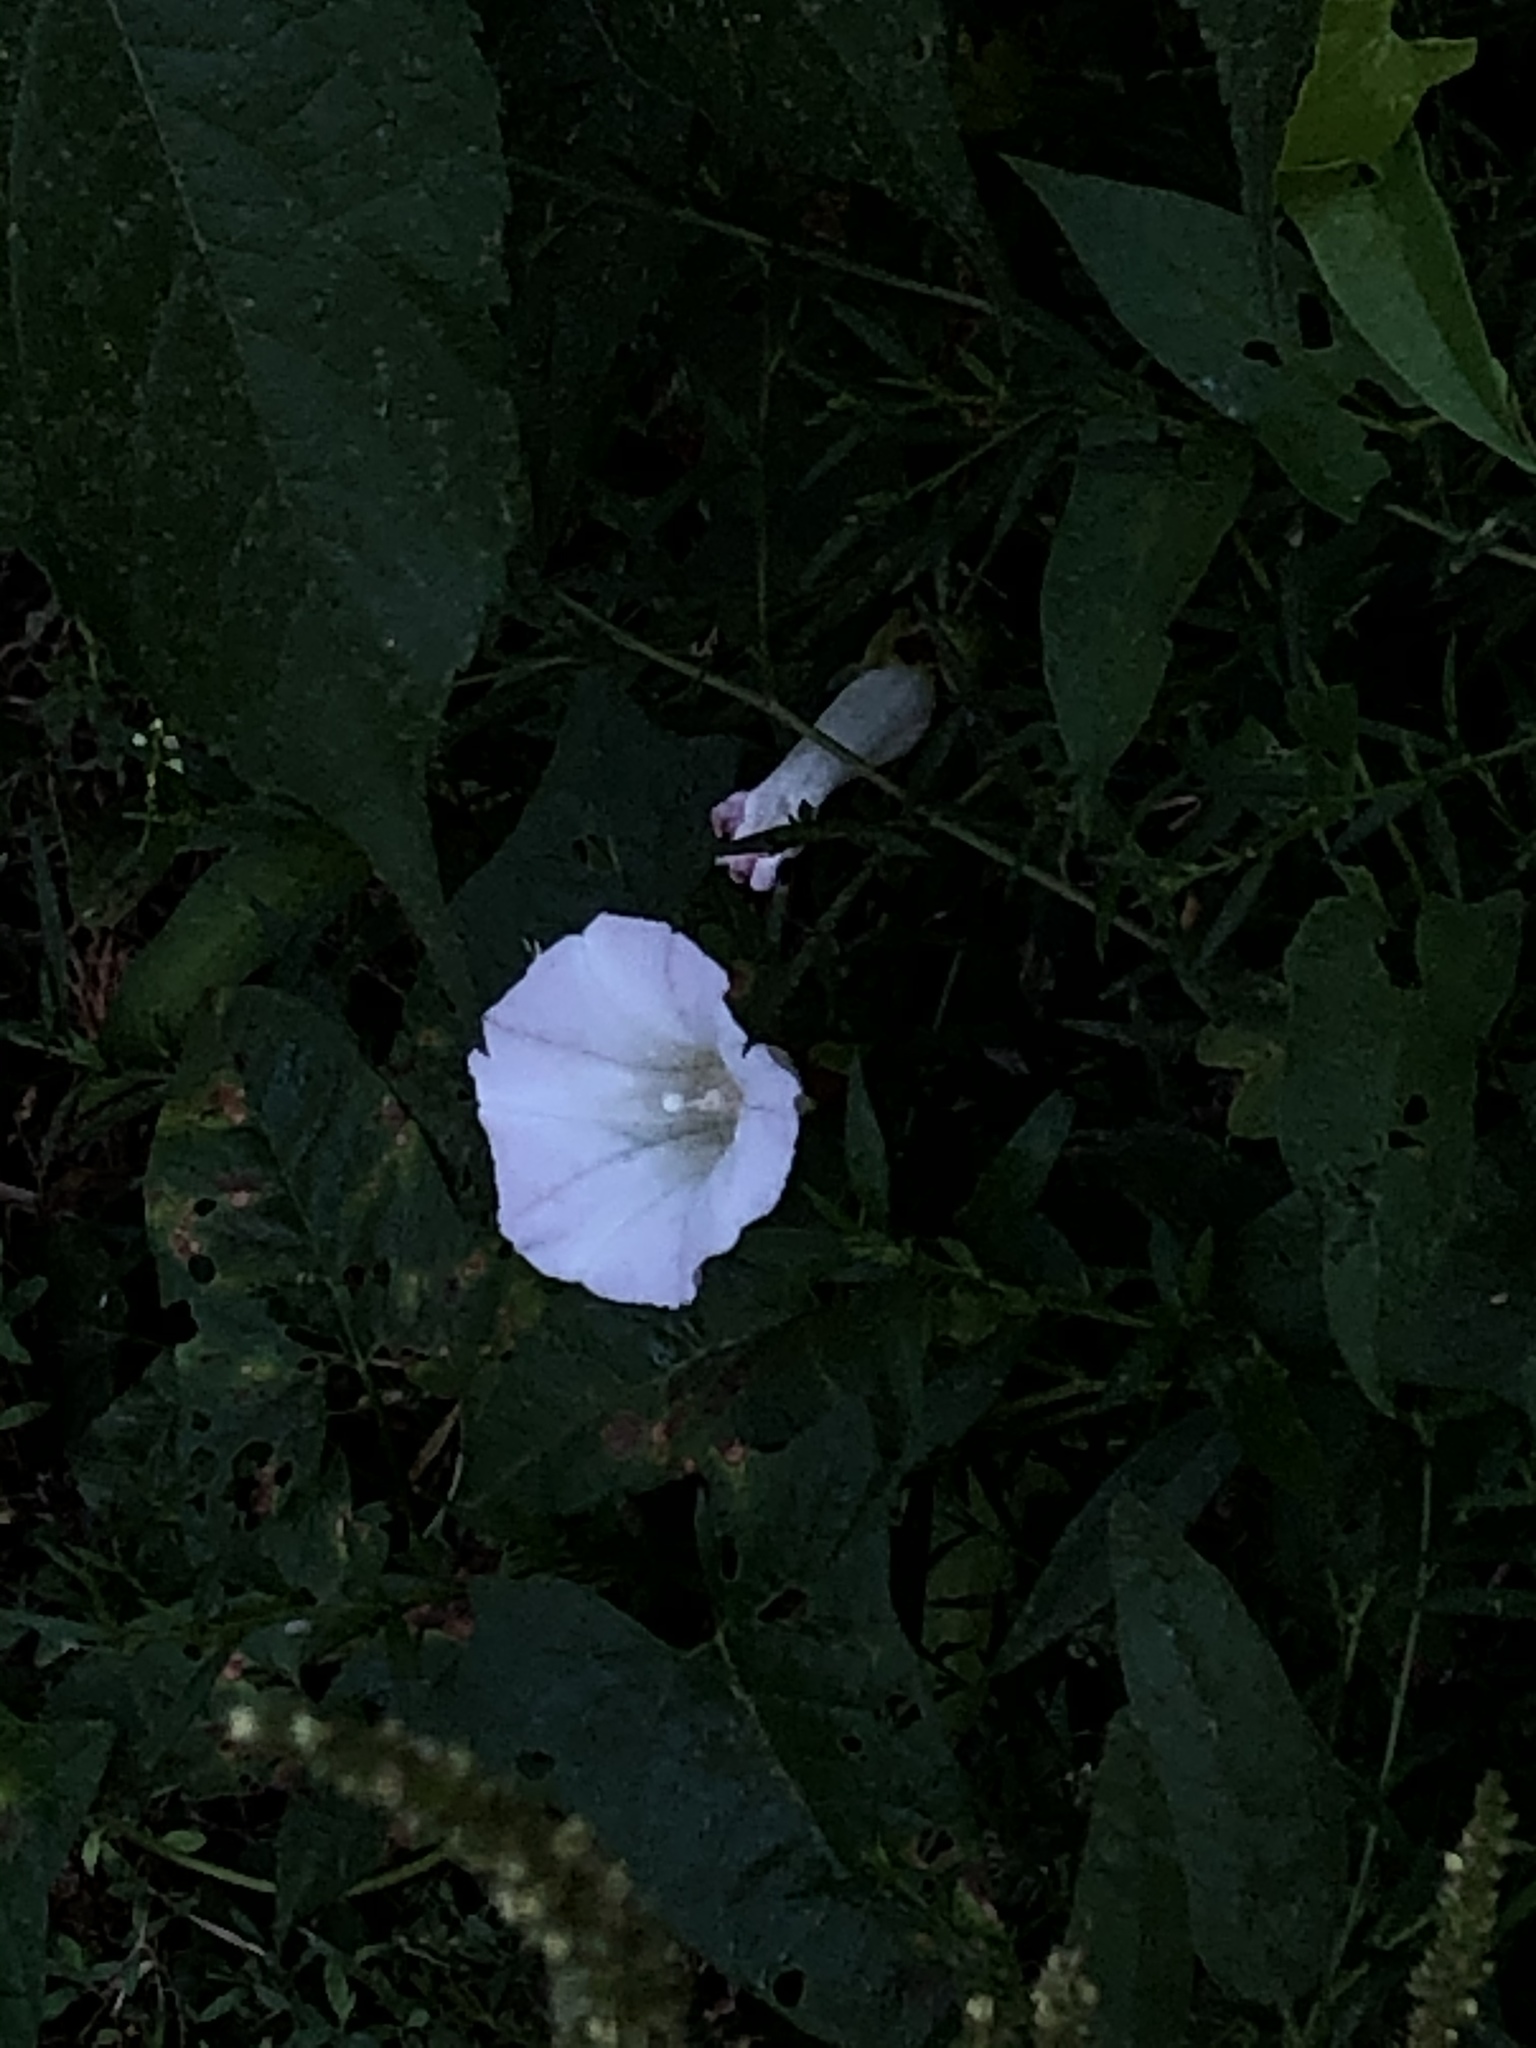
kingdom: Plantae
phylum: Tracheophyta
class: Magnoliopsida
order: Solanales
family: Convolvulaceae
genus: Calystegia
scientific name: Calystegia sepium
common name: Hedge bindweed
